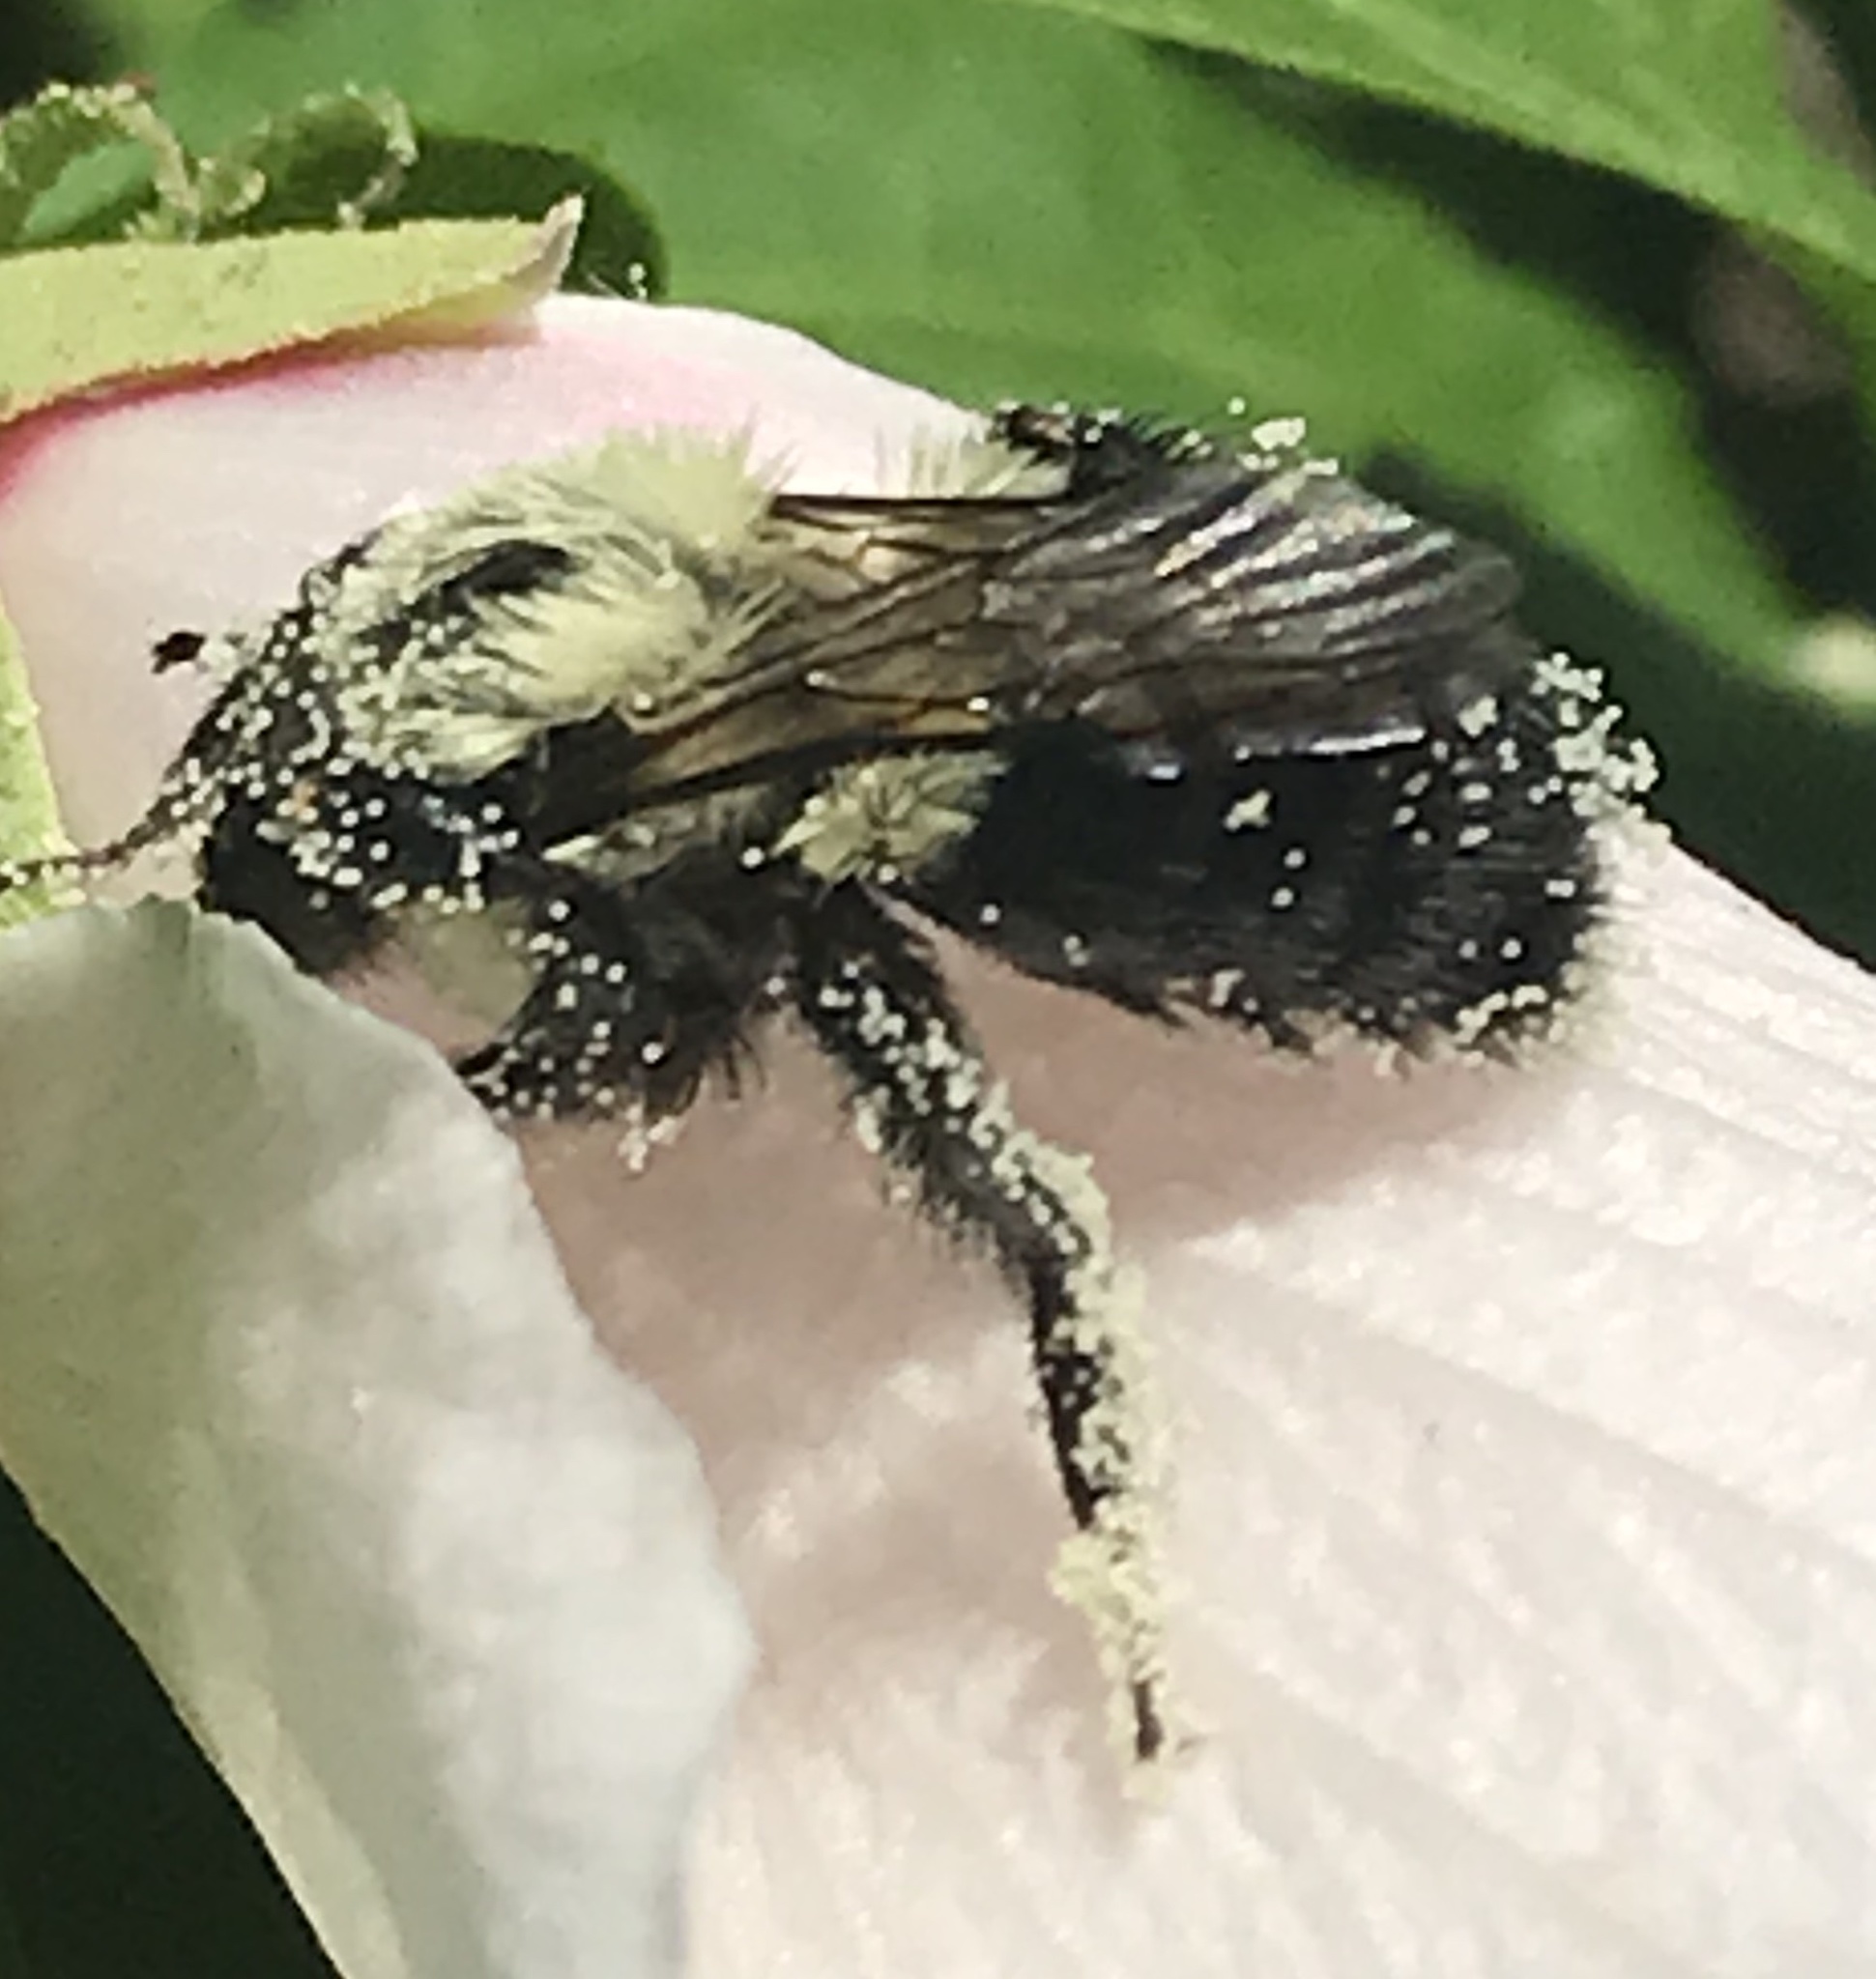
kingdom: Animalia
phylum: Arthropoda
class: Insecta
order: Hymenoptera
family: Apidae
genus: Bombus
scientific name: Bombus impatiens
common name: Common eastern bumble bee
